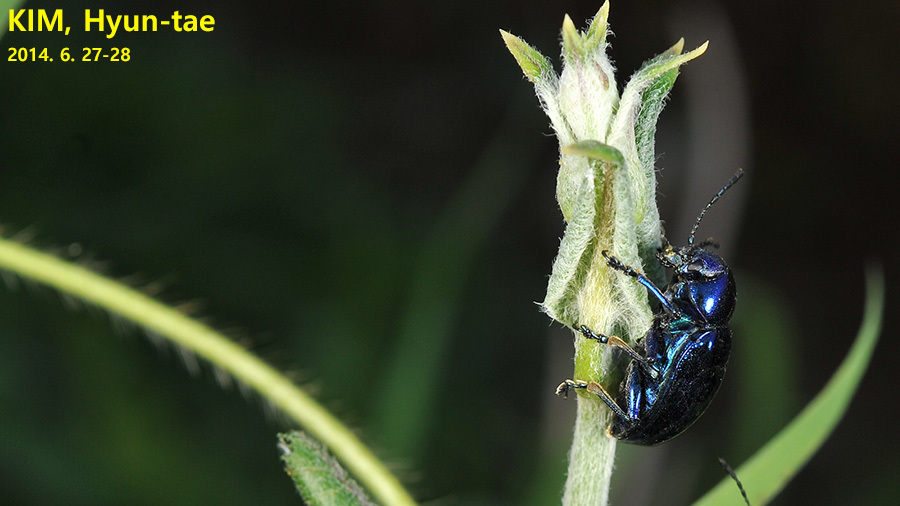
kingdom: Animalia
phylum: Arthropoda
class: Insecta
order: Coleoptera
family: Chrysomelidae
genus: Chrysochus
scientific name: Chrysochus chinensis
